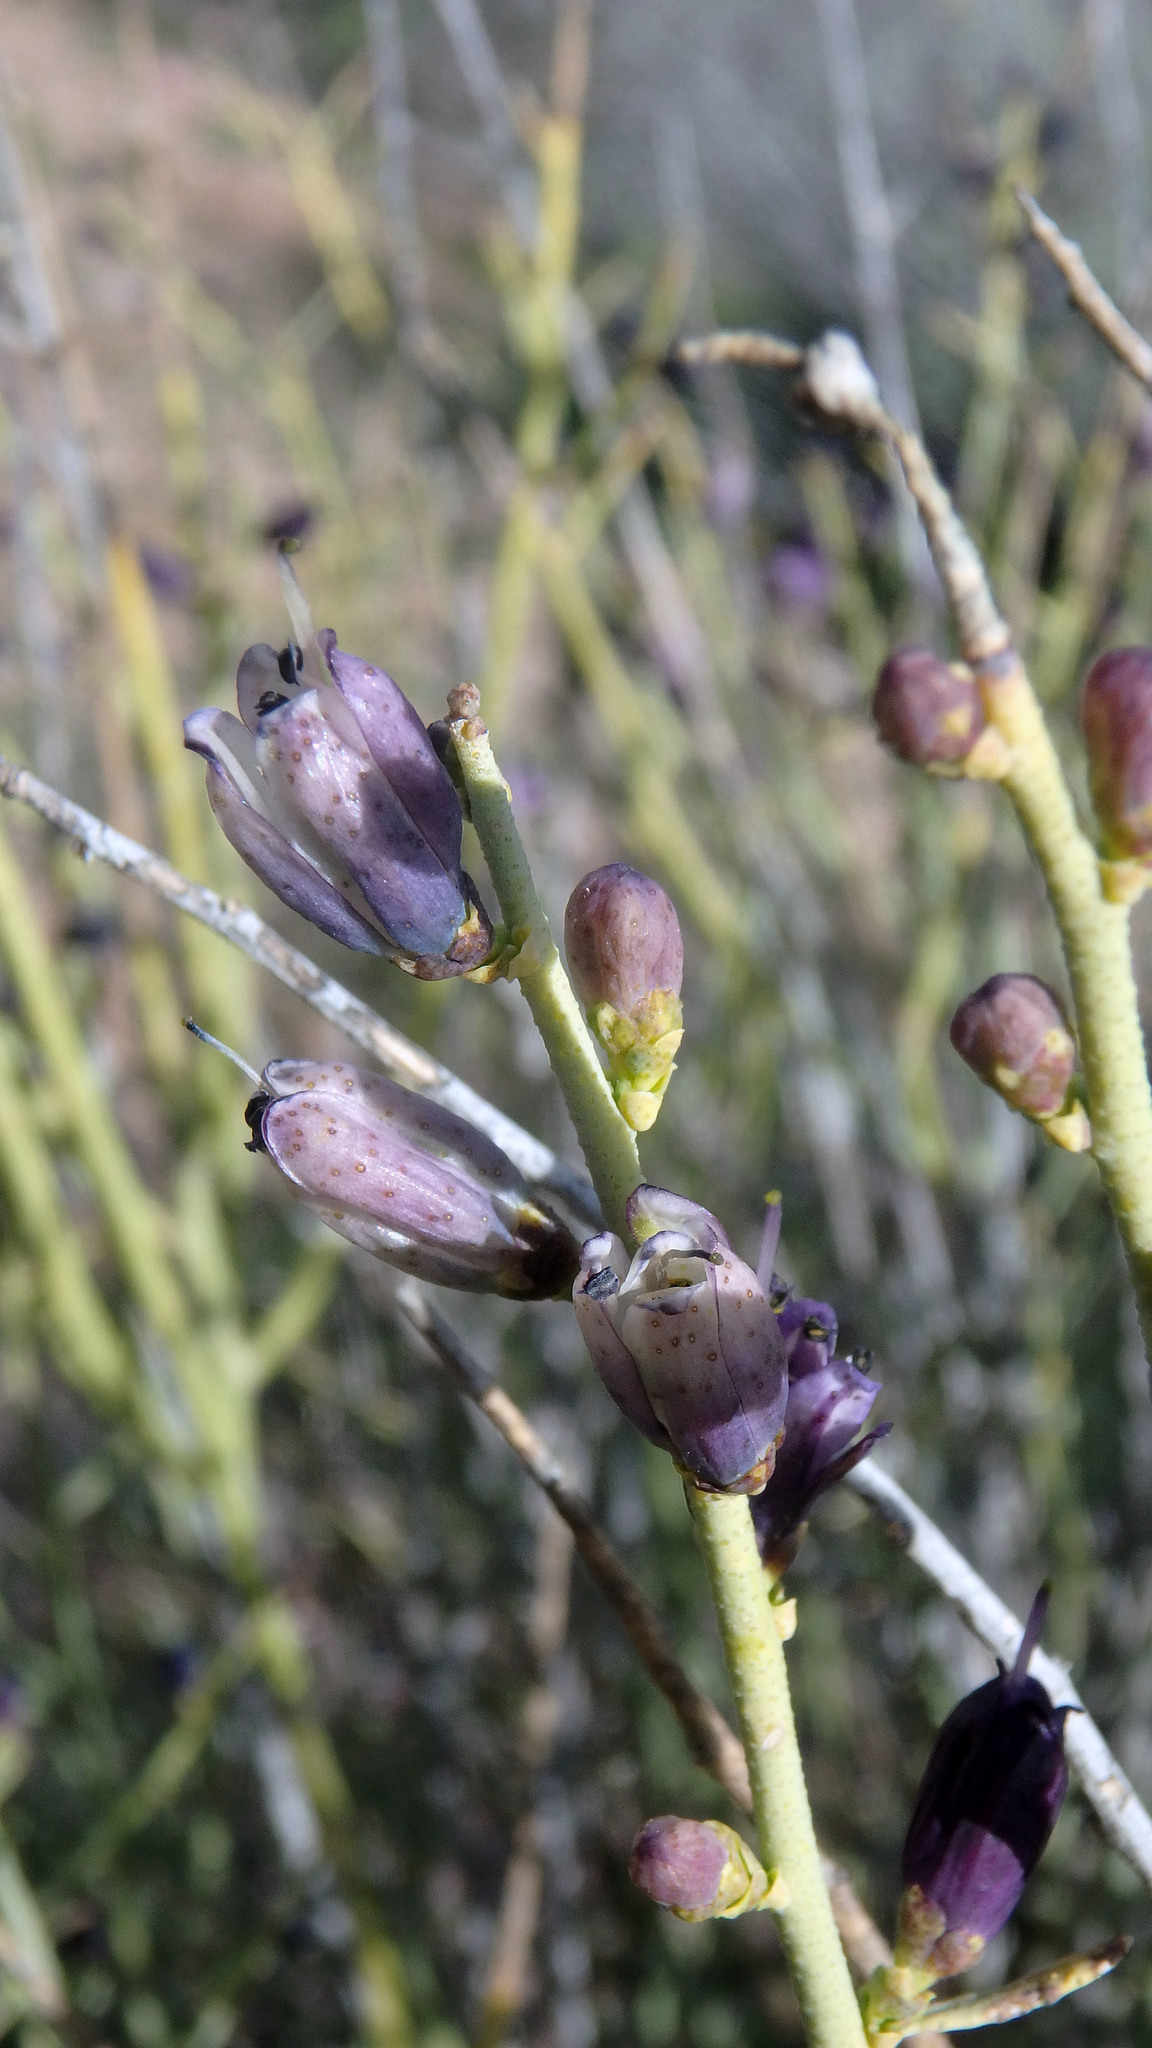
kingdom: Plantae
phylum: Tracheophyta
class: Magnoliopsida
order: Sapindales
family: Rutaceae
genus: Thamnosma
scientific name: Thamnosma montana
